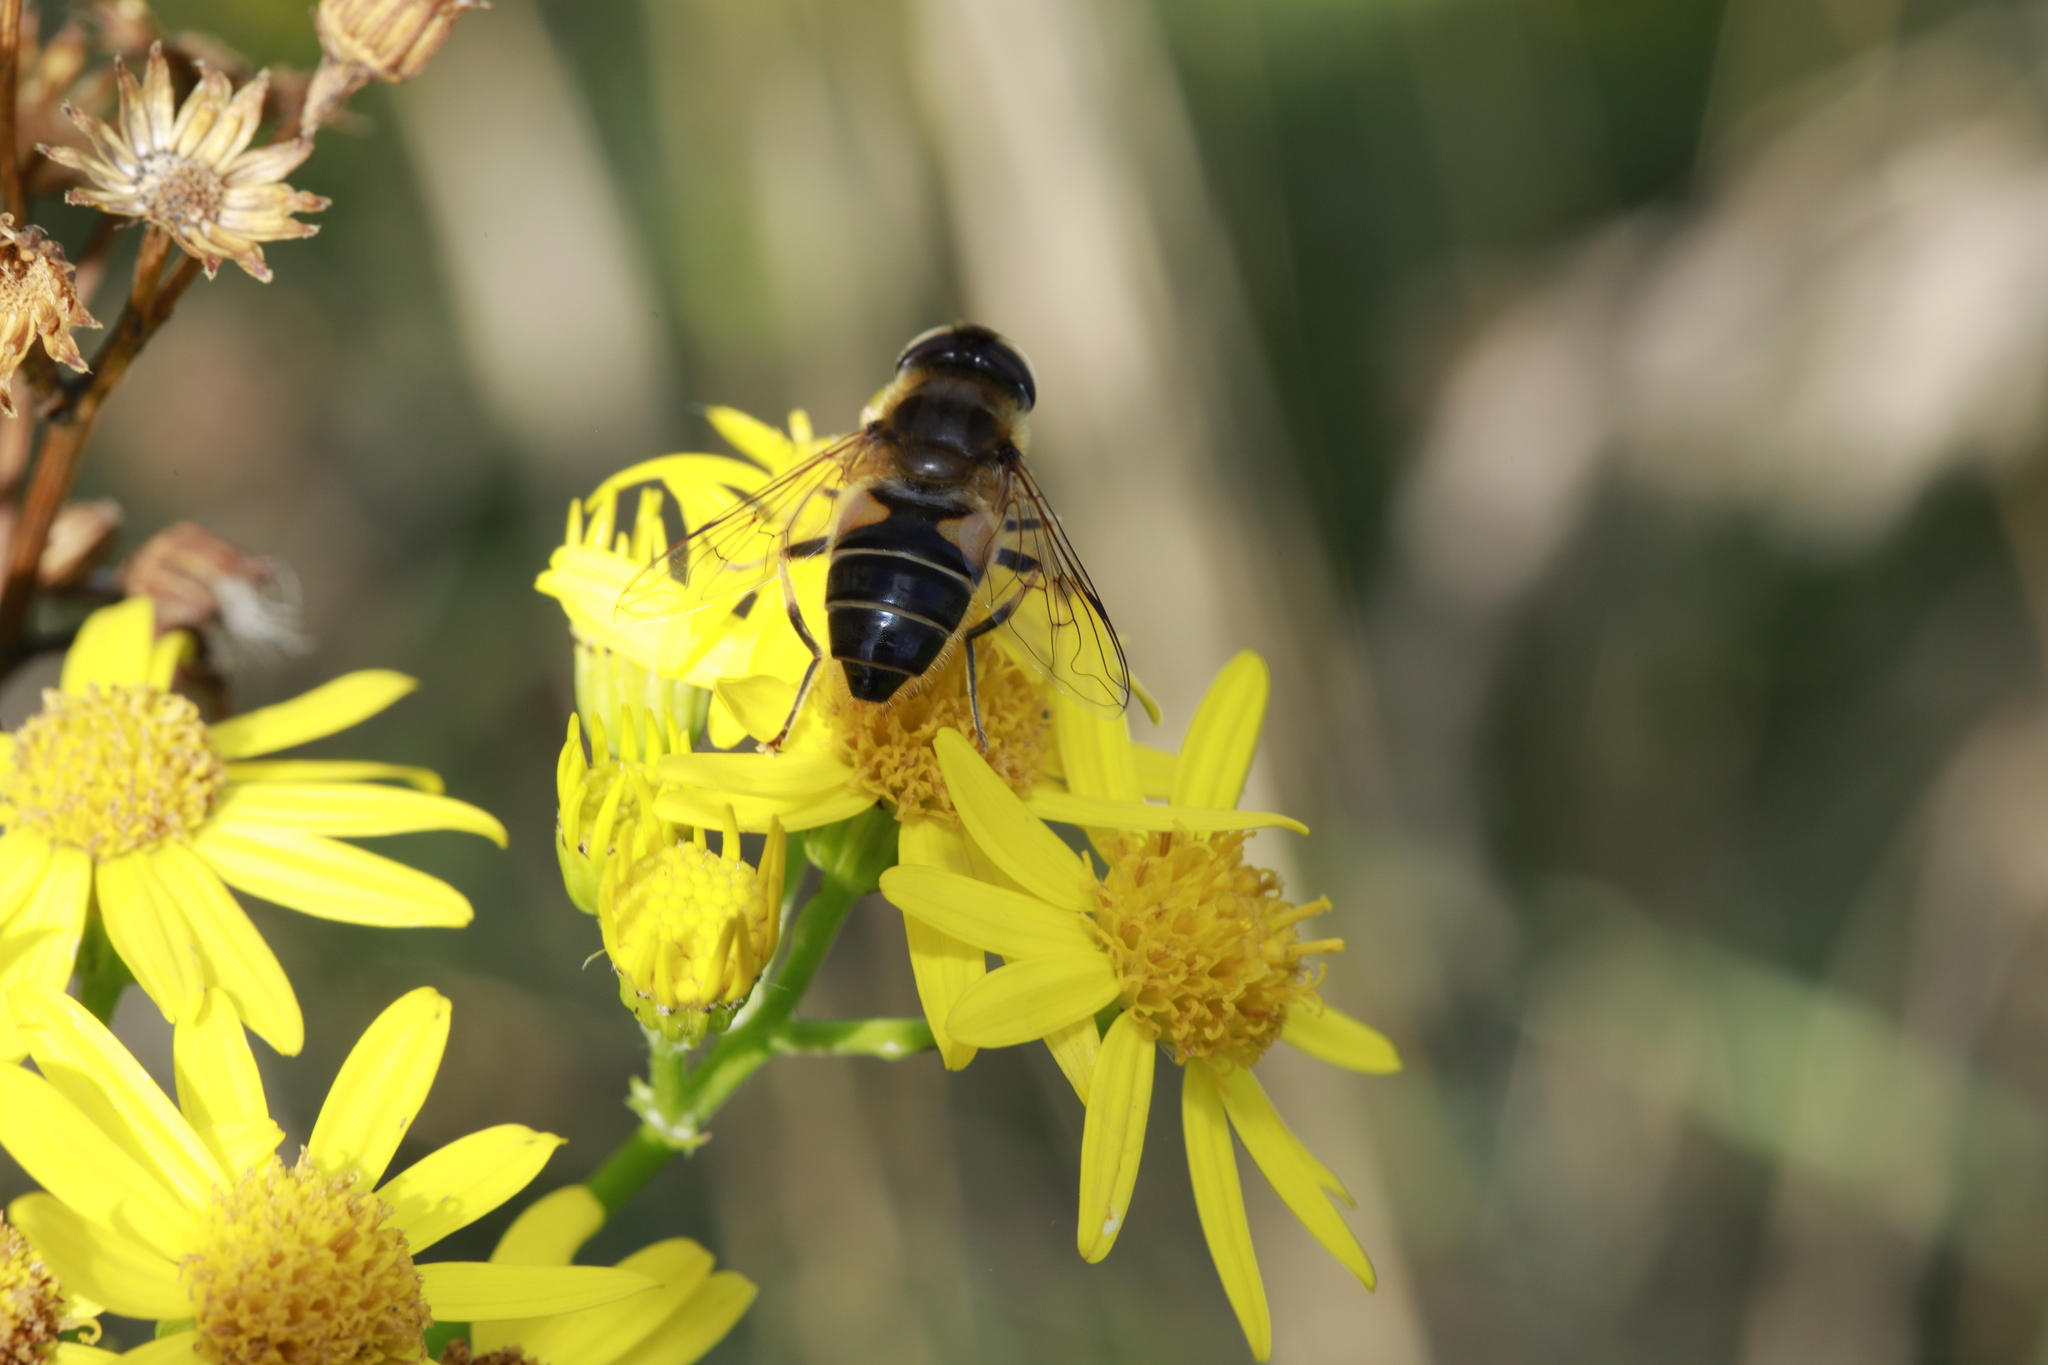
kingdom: Animalia
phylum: Arthropoda
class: Insecta
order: Diptera
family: Syrphidae
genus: Eristalis
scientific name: Eristalis pertinax
